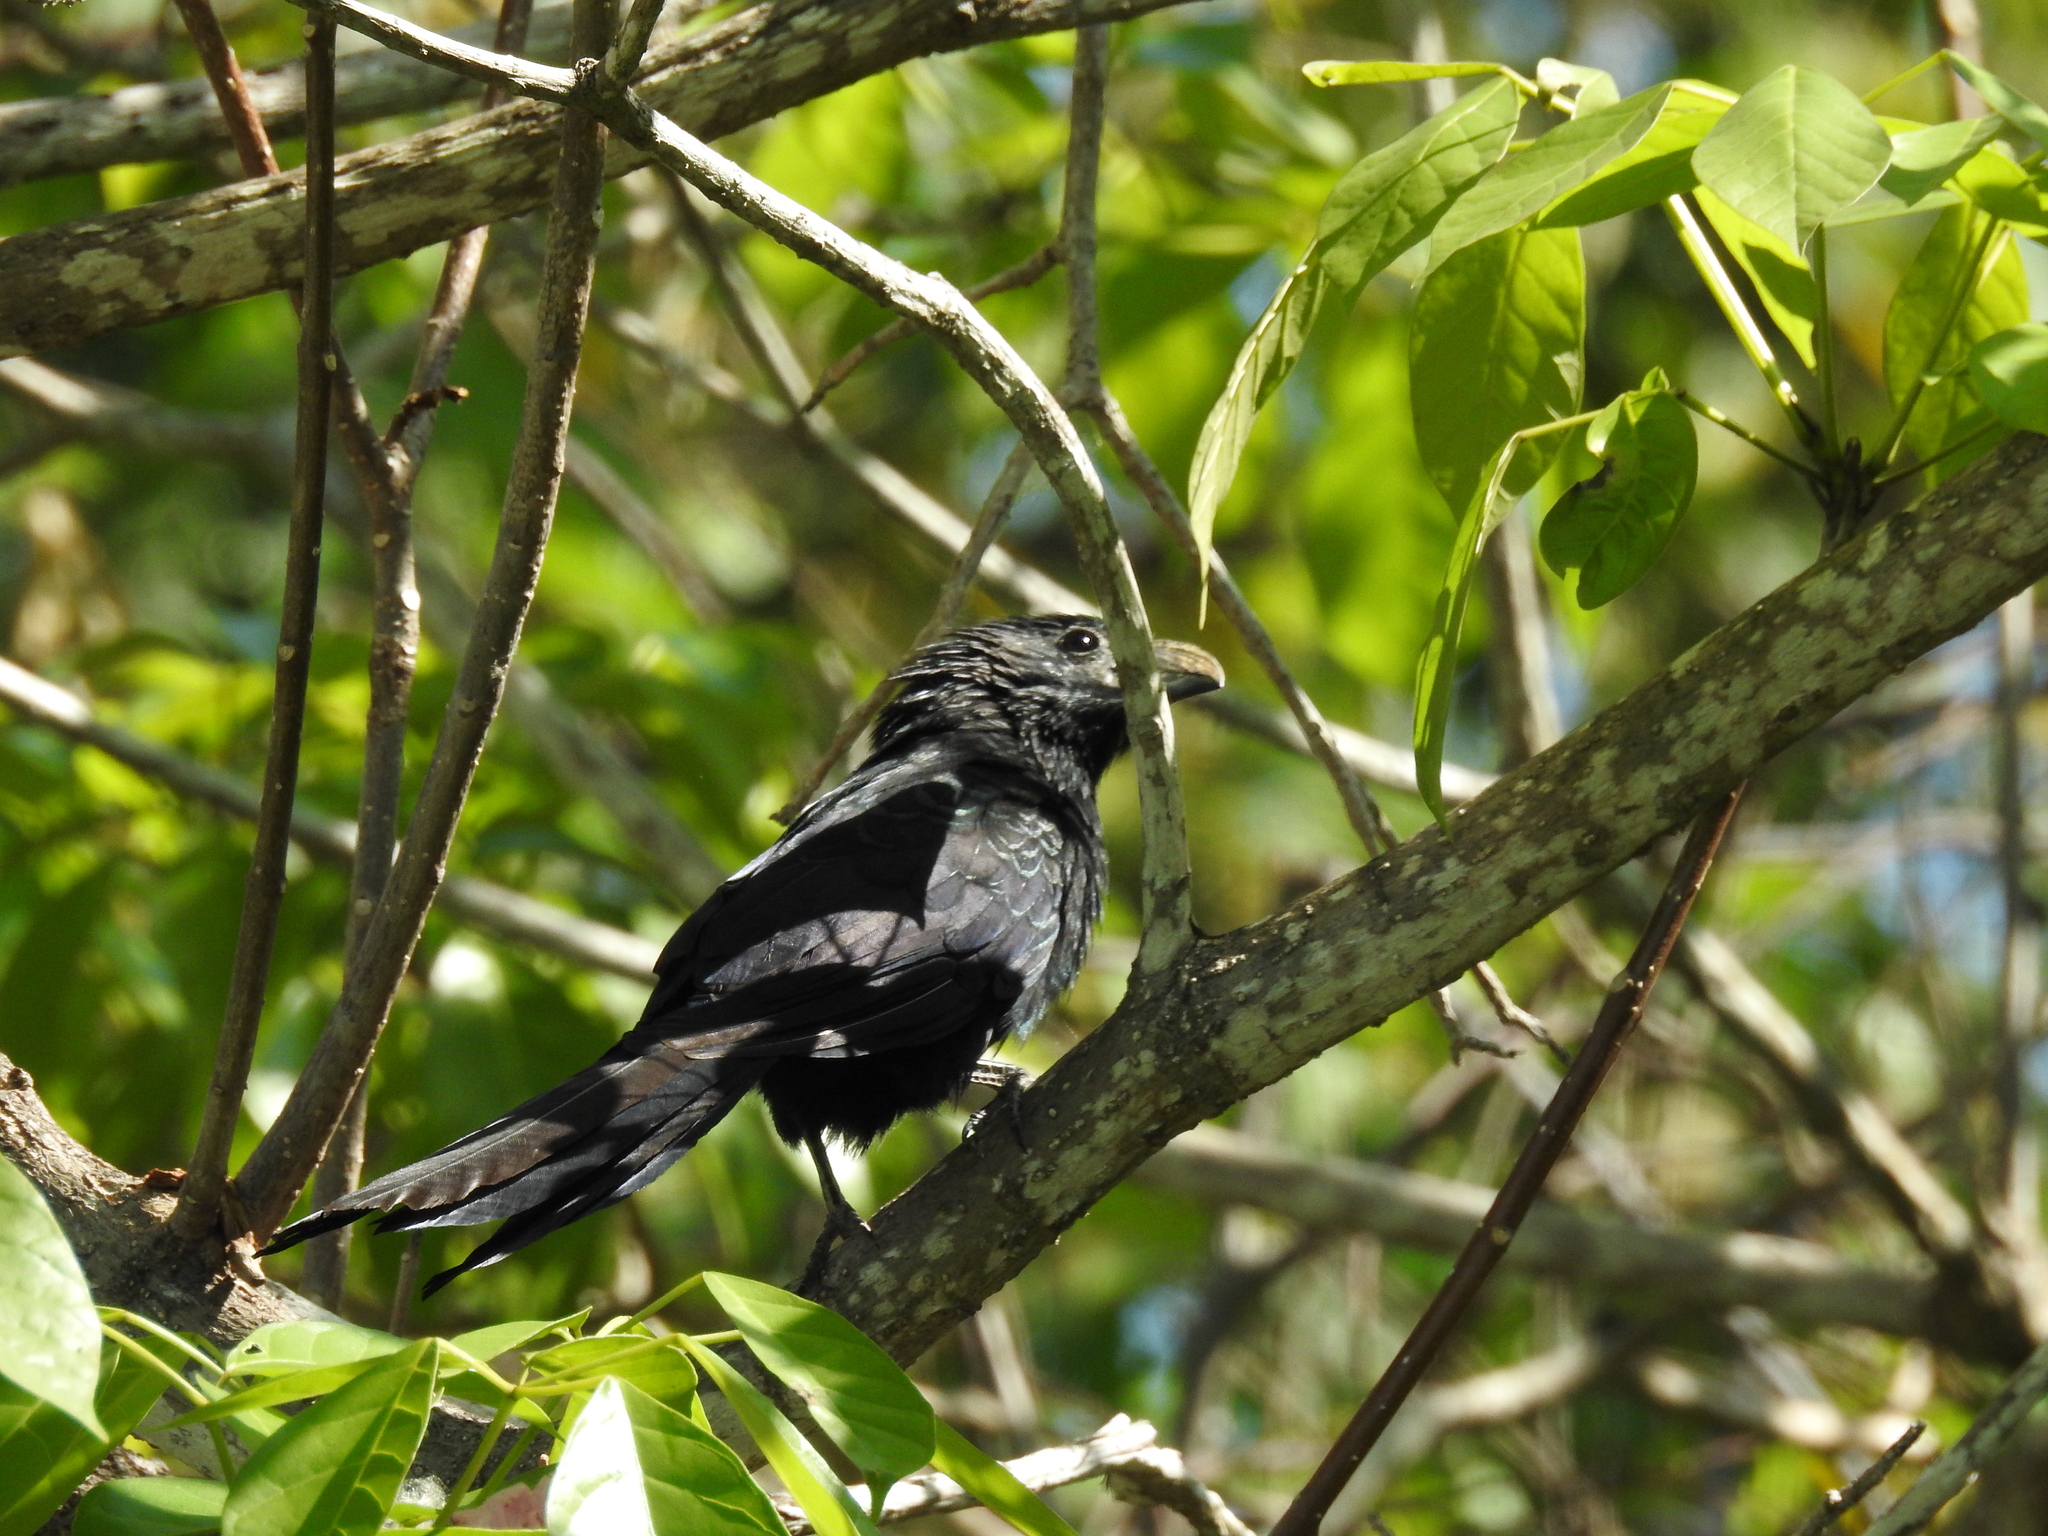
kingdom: Animalia
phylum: Chordata
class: Aves
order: Cuculiformes
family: Cuculidae
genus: Crotophaga
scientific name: Crotophaga sulcirostris
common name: Groove-billed ani
